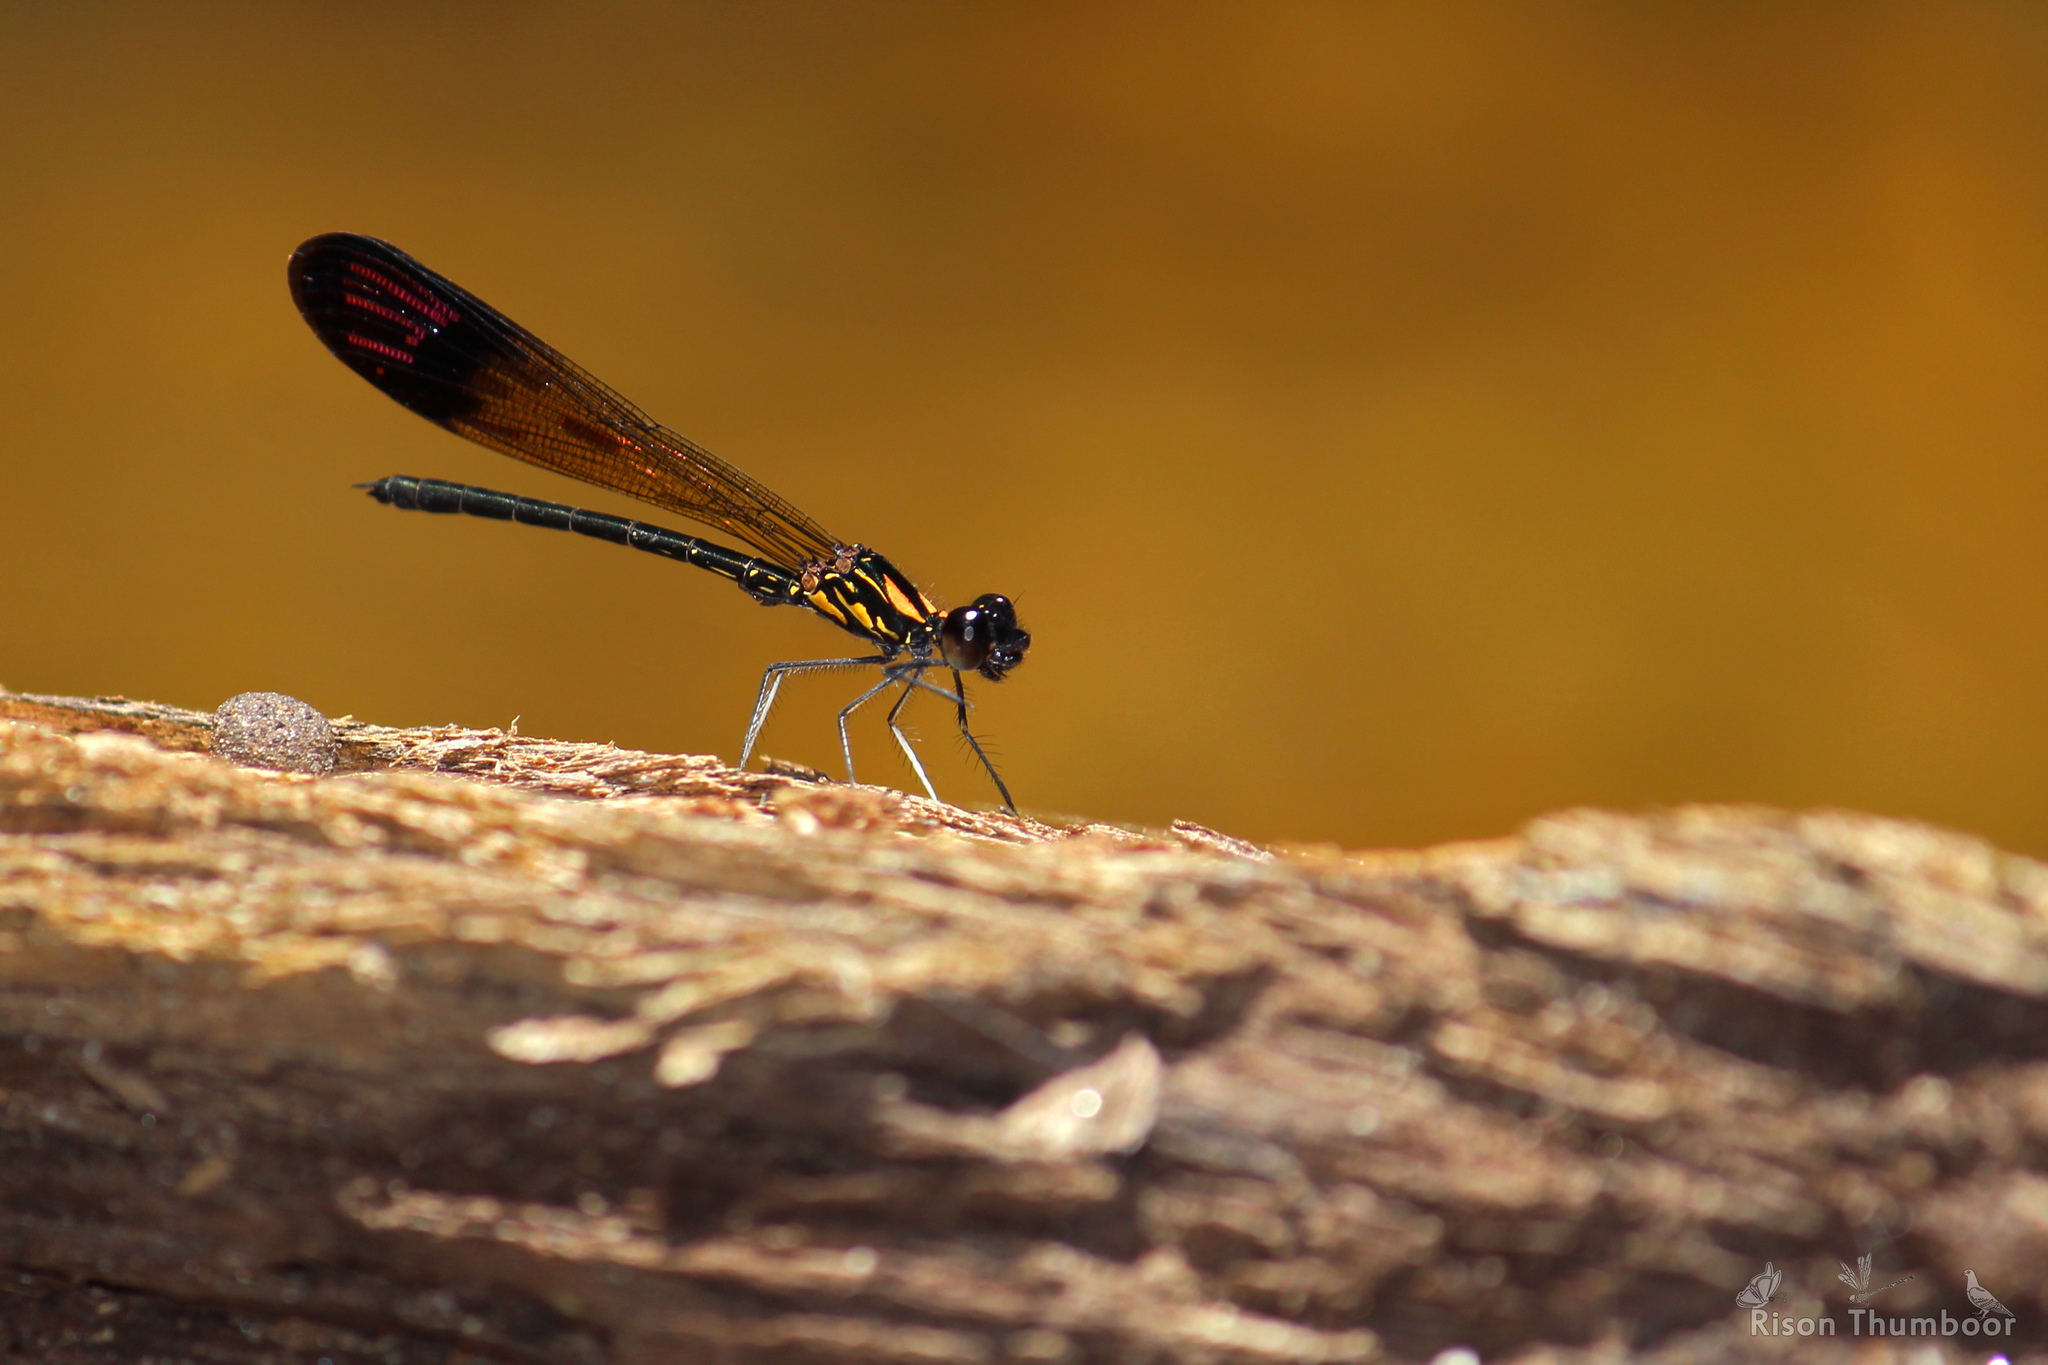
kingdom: Animalia
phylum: Arthropoda
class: Insecta
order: Odonata
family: Chlorocyphidae
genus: Heliocypha
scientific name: Heliocypha bisignata
